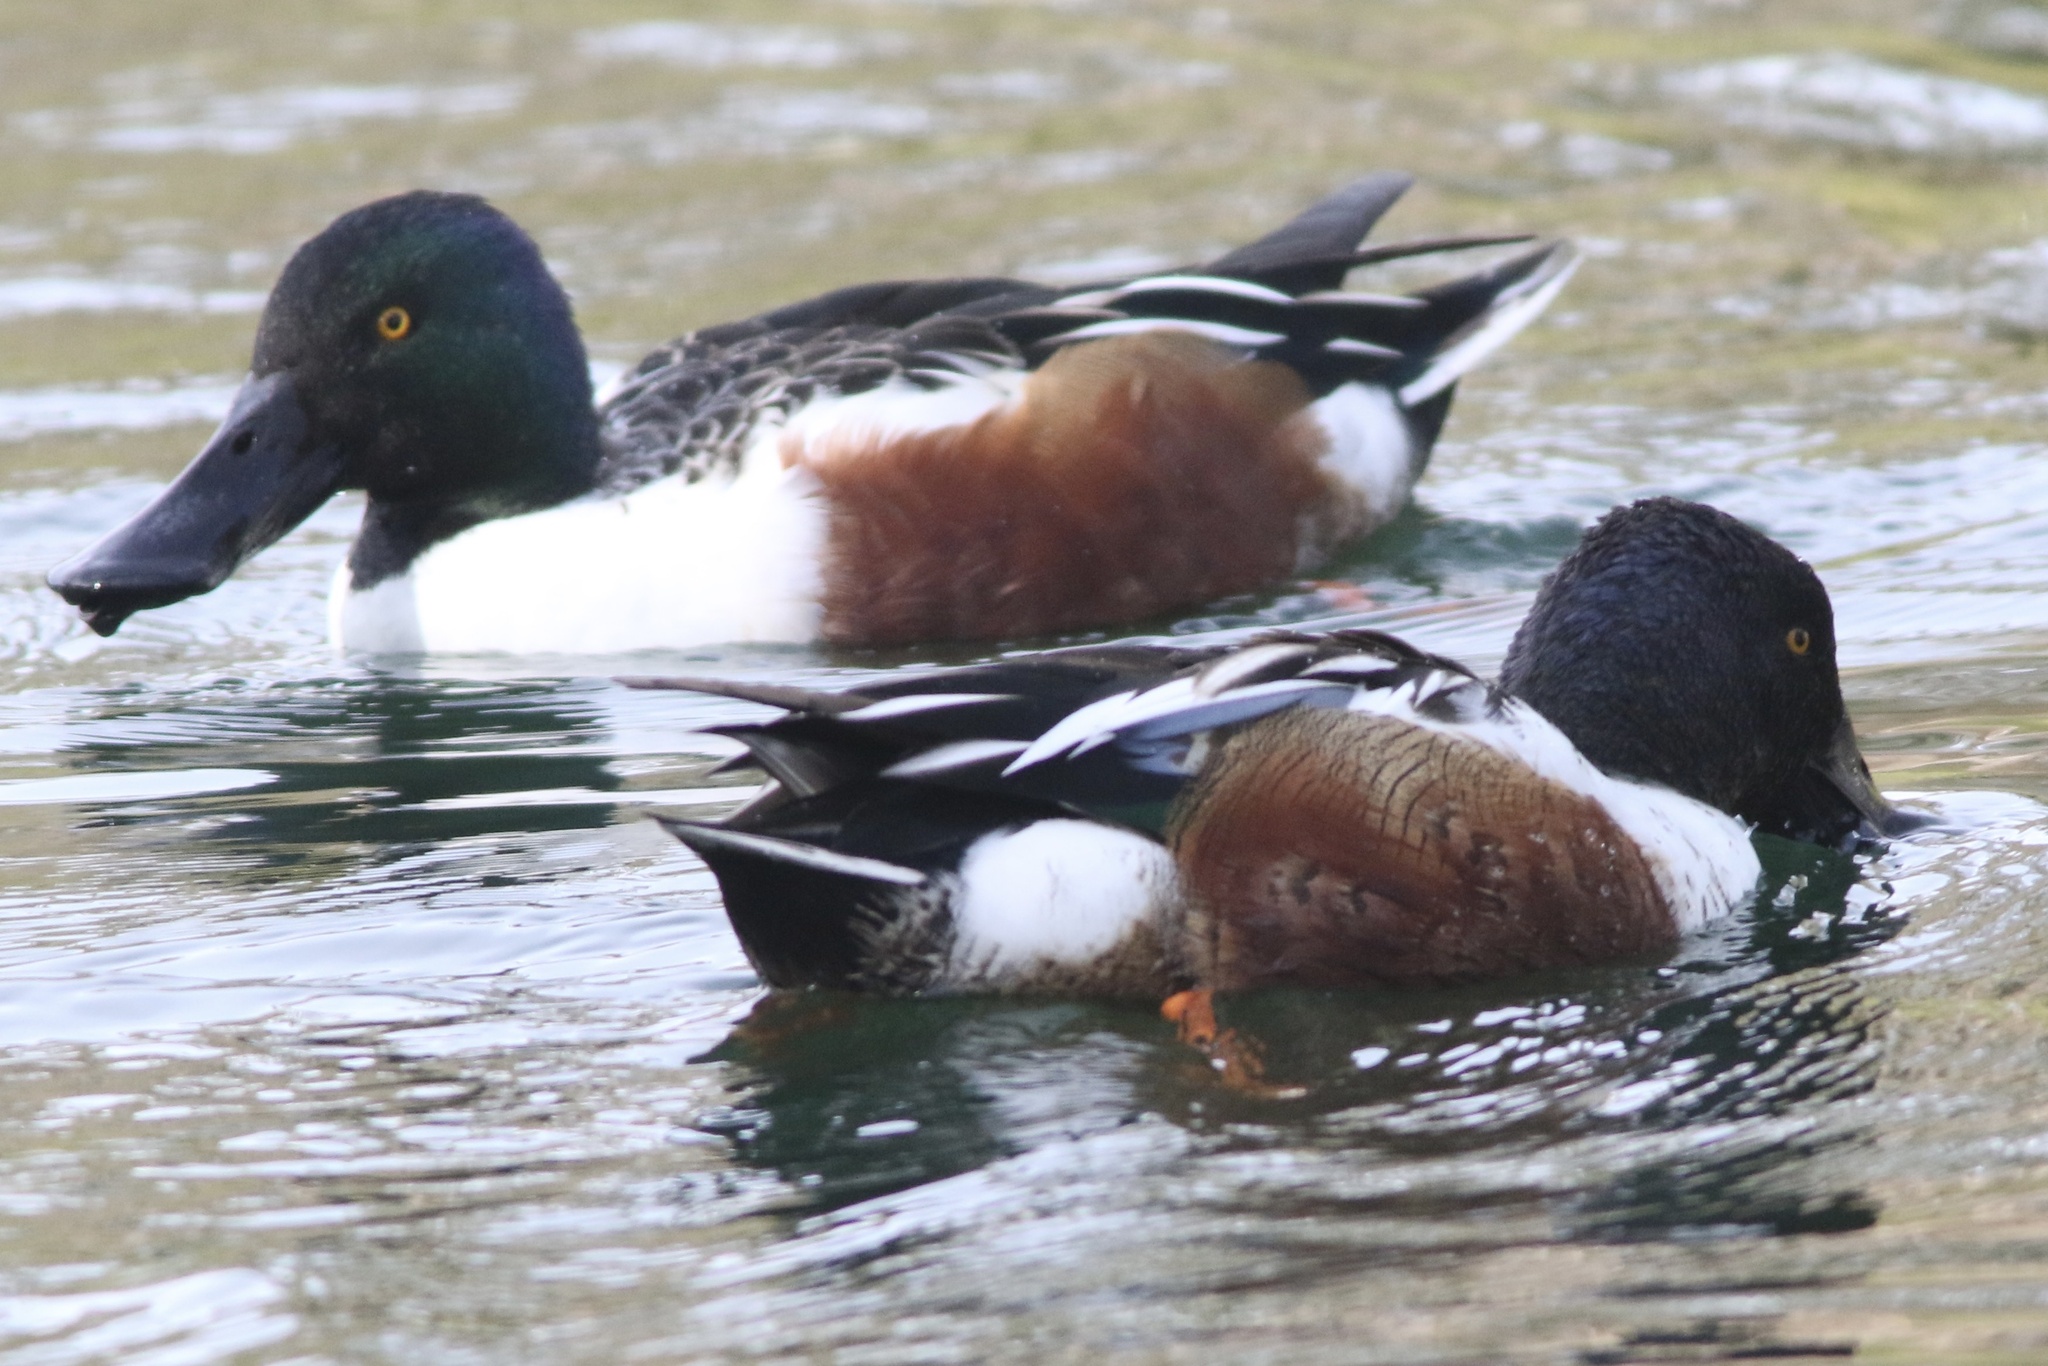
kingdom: Animalia
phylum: Chordata
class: Aves
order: Anseriformes
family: Anatidae
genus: Spatula
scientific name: Spatula clypeata
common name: Northern shoveler
